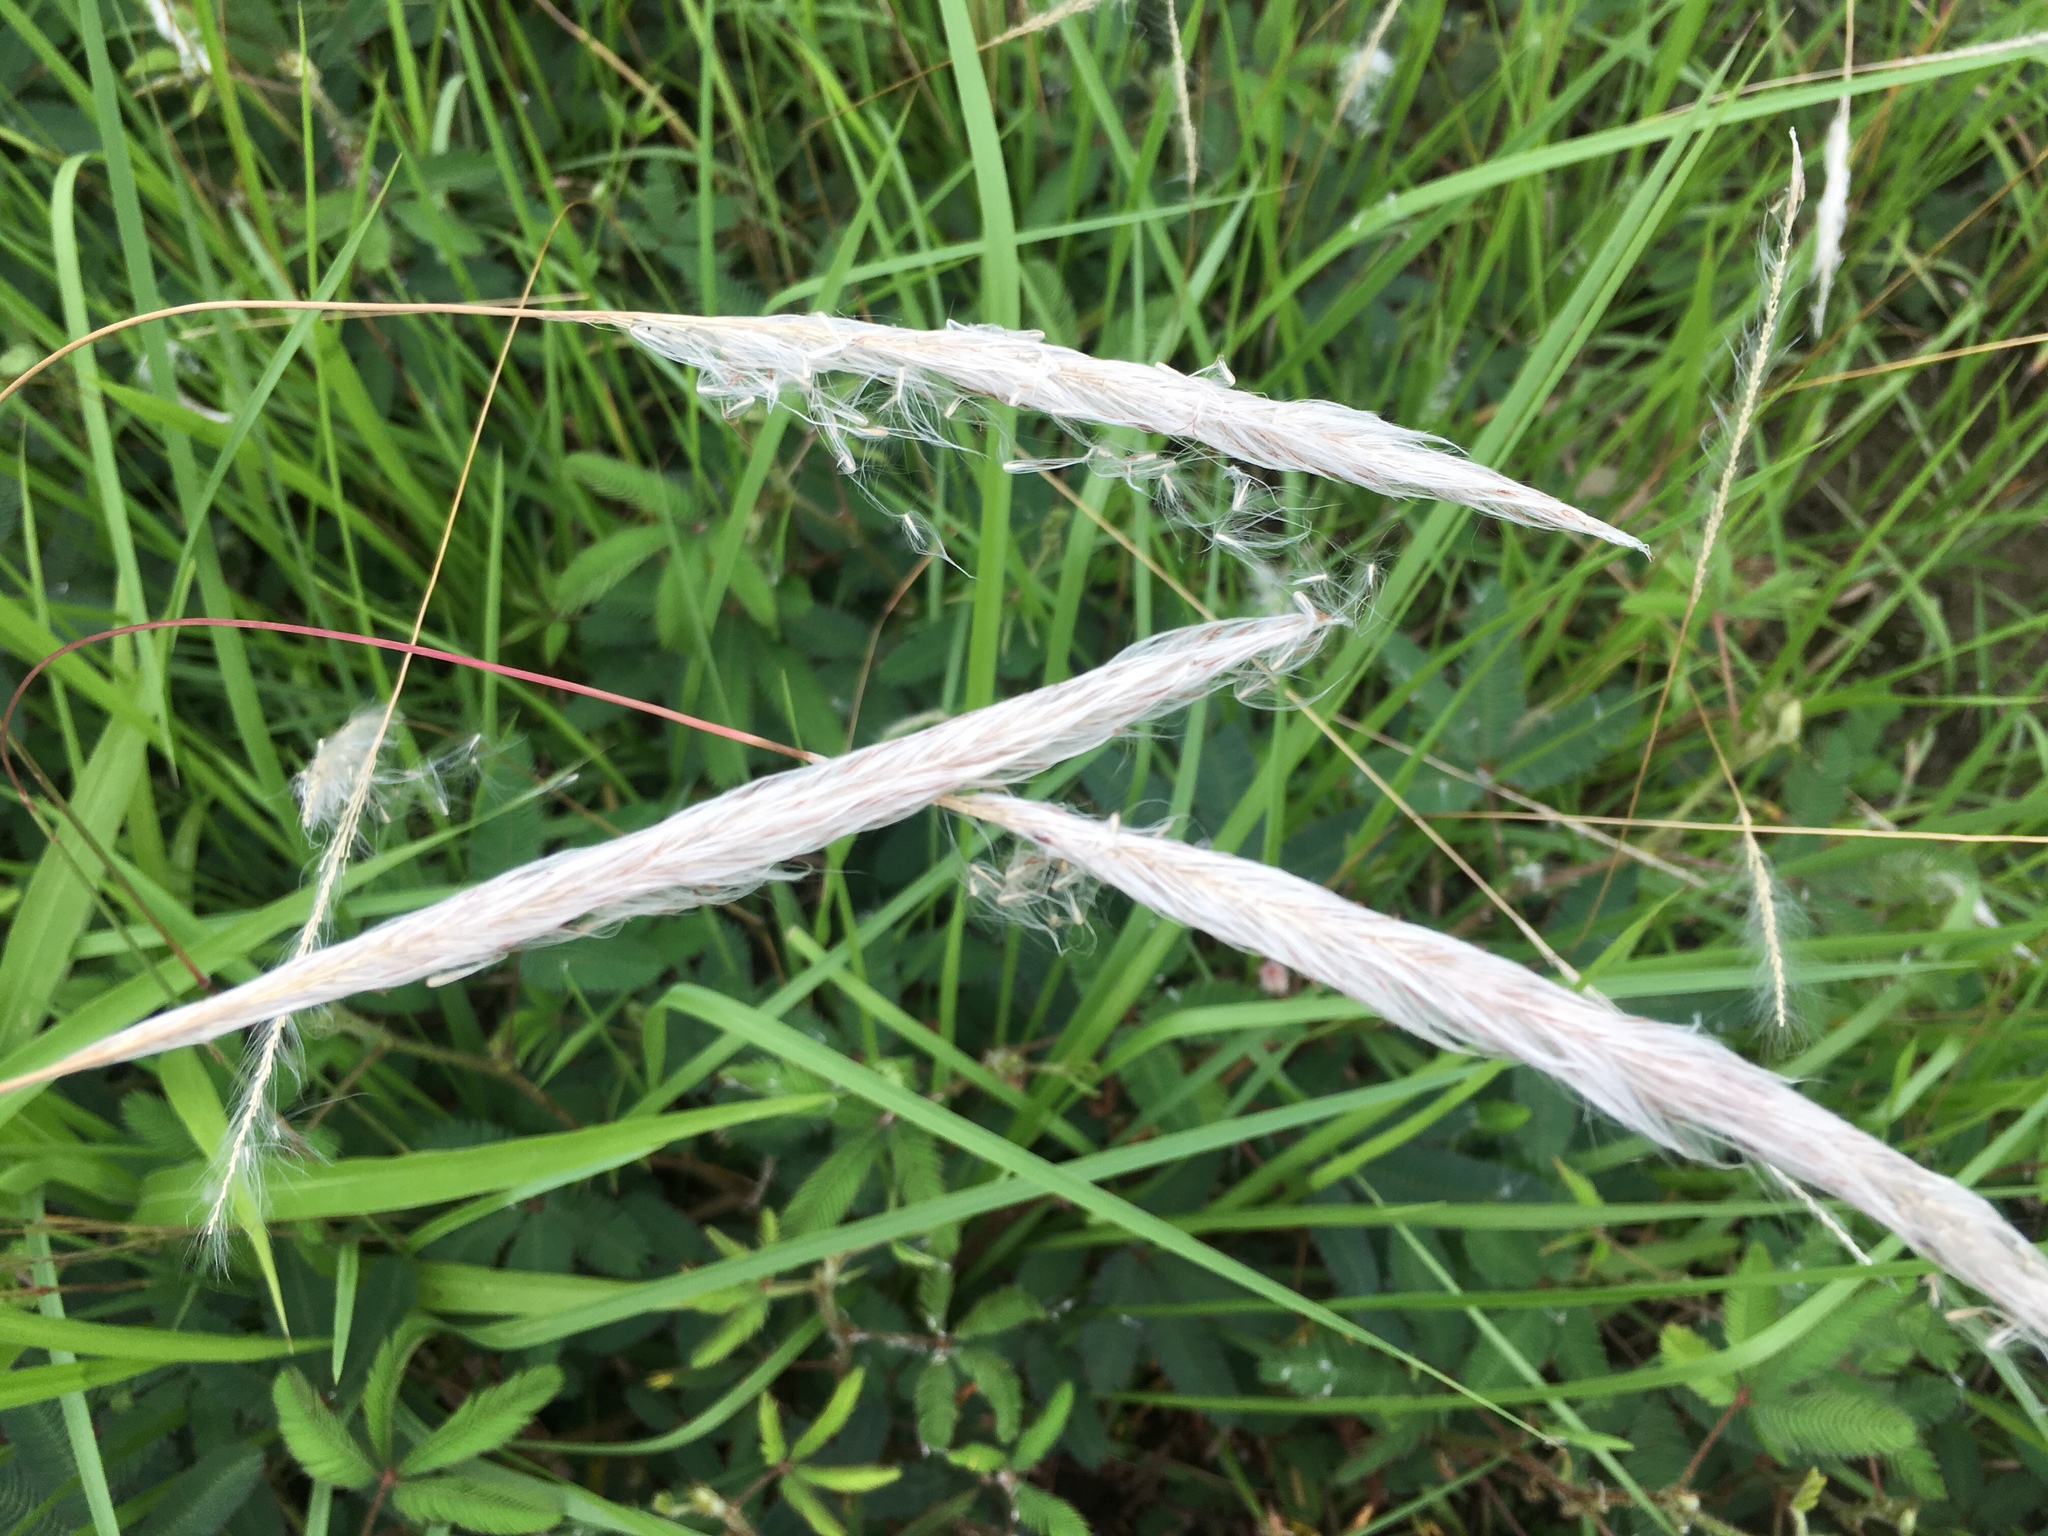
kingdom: Plantae
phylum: Tracheophyta
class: Liliopsida
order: Poales
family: Poaceae
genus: Imperata
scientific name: Imperata cylindrica
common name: Cogongrass
